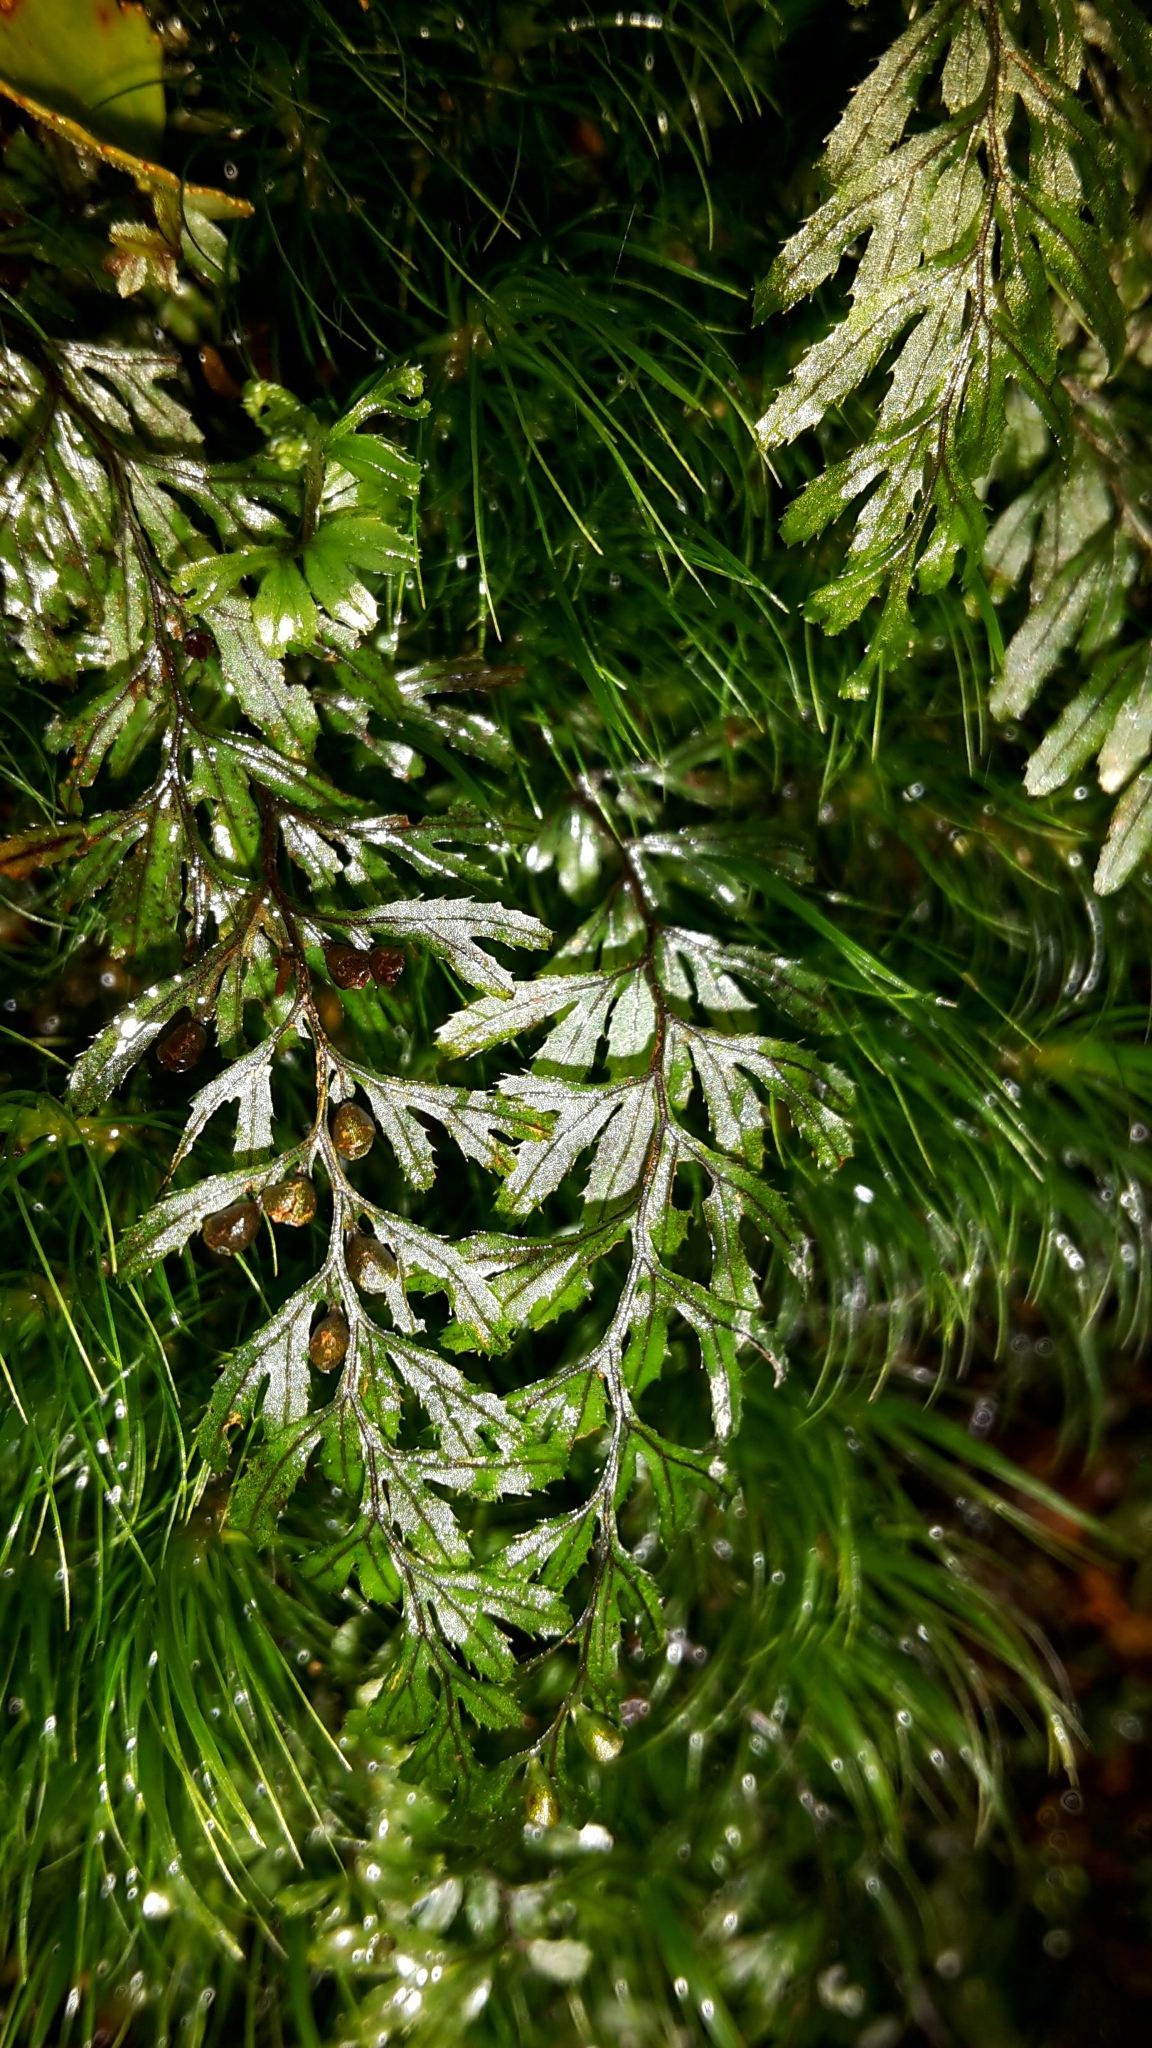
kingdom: Plantae
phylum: Tracheophyta
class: Polypodiopsida
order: Hymenophyllales
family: Hymenophyllaceae
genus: Hymenophyllum
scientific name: Hymenophyllum peltatum
